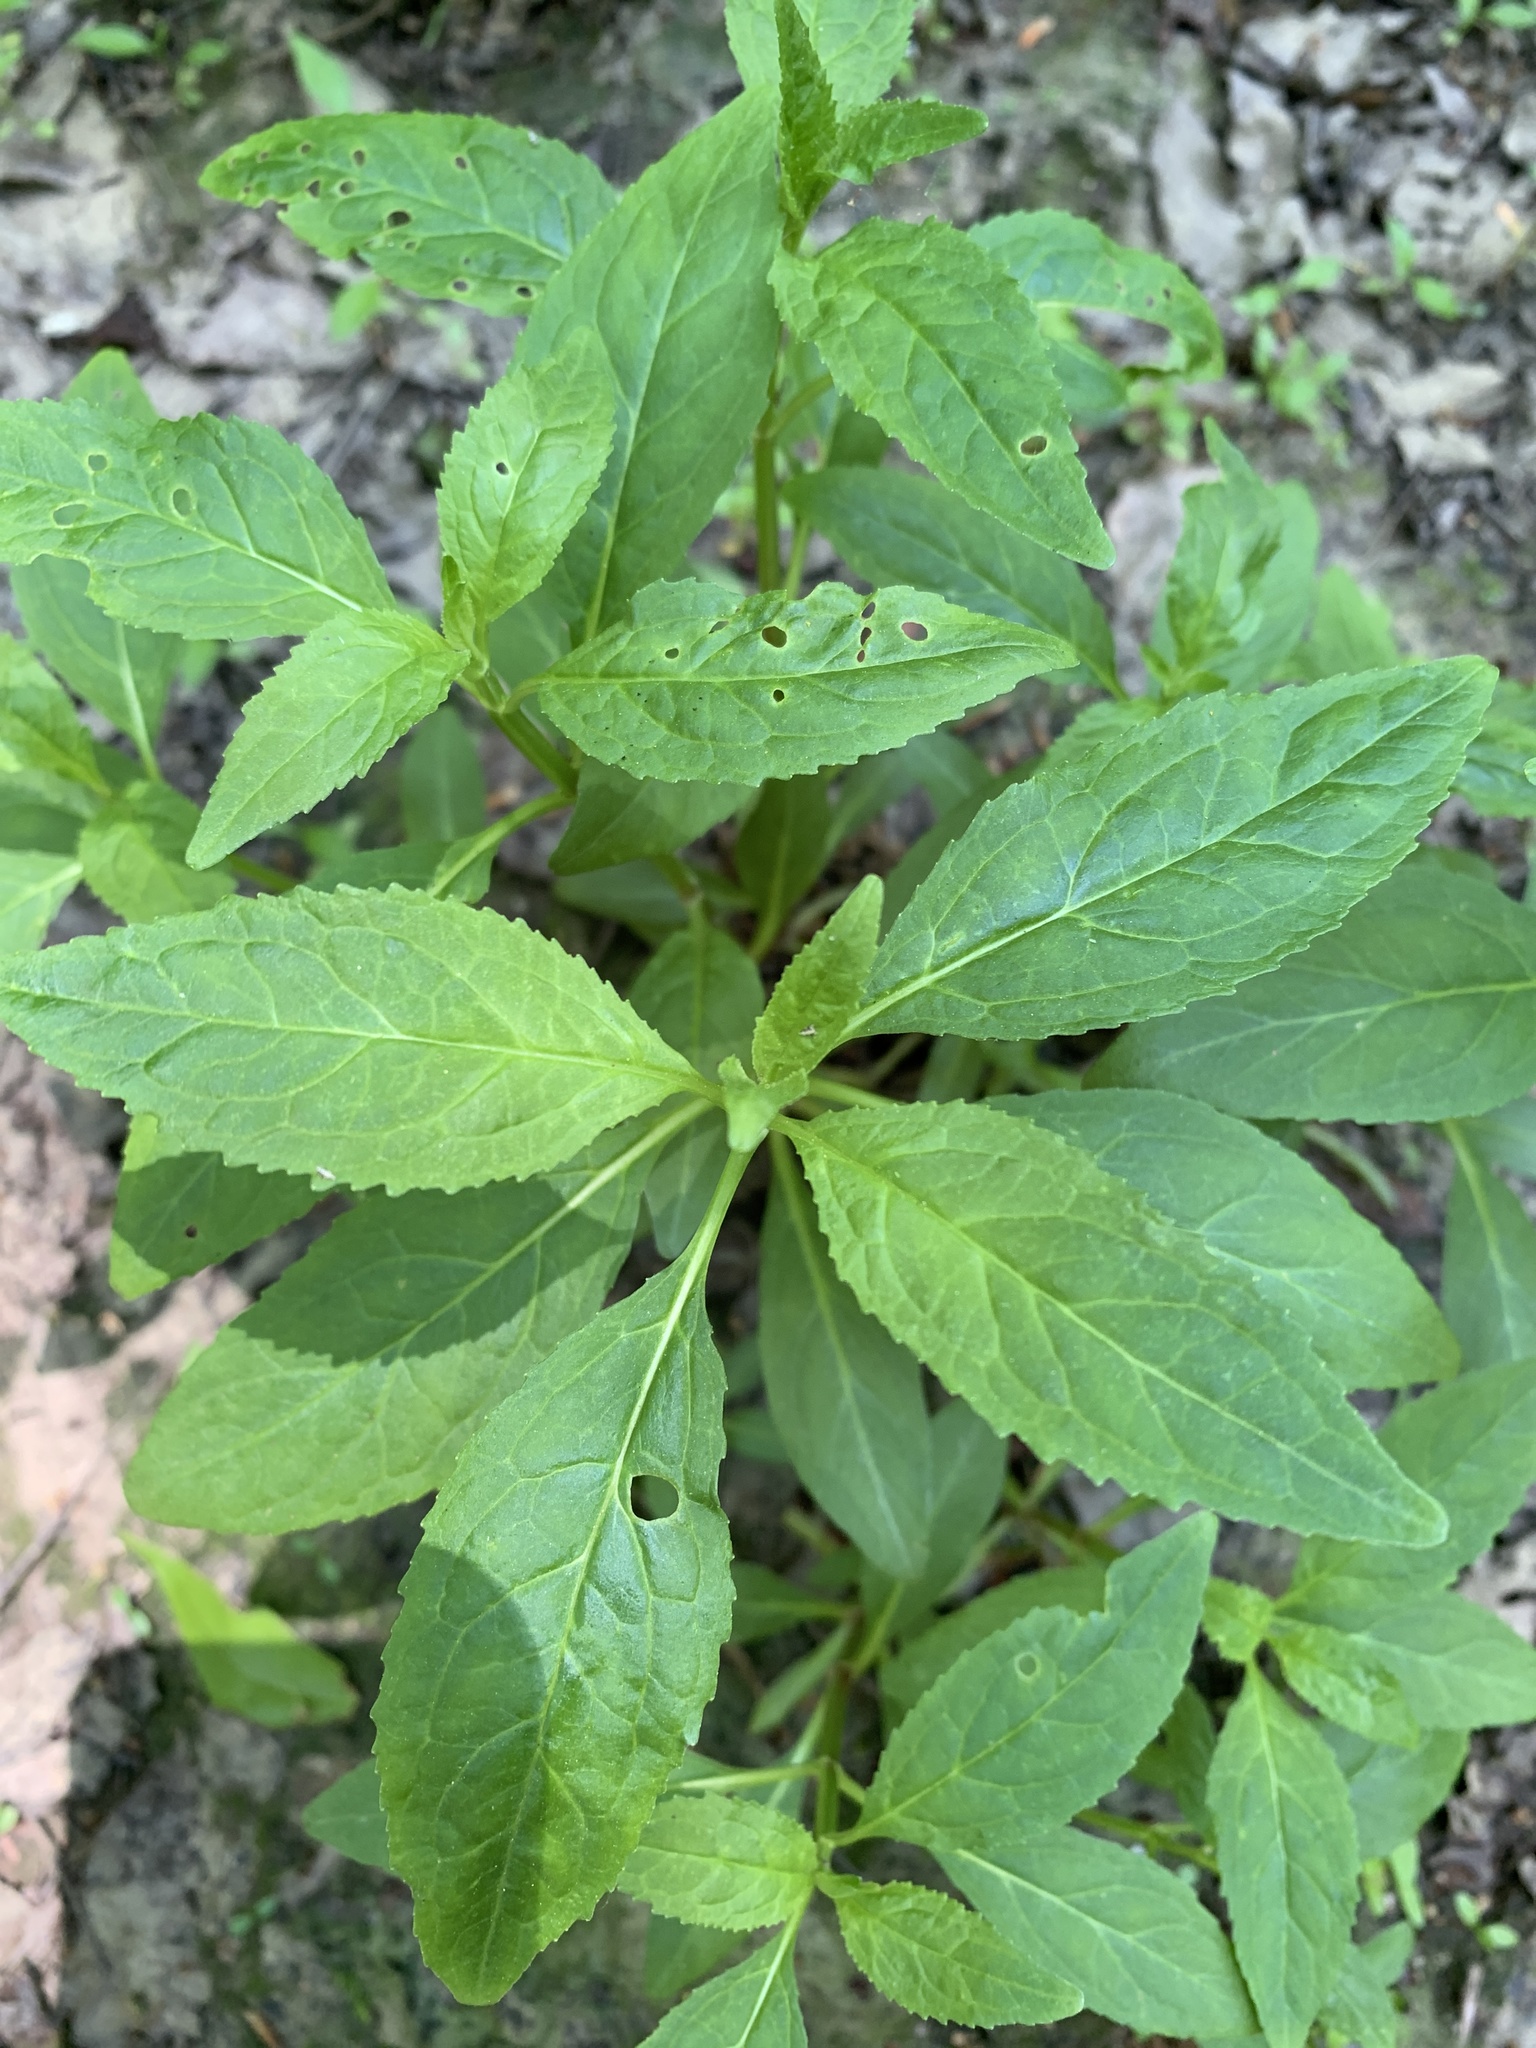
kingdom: Plantae
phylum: Tracheophyta
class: Magnoliopsida
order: Lamiales
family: Phrymaceae
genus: Mimulus
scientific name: Mimulus alatus
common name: Sharp-wing monkey-flower
